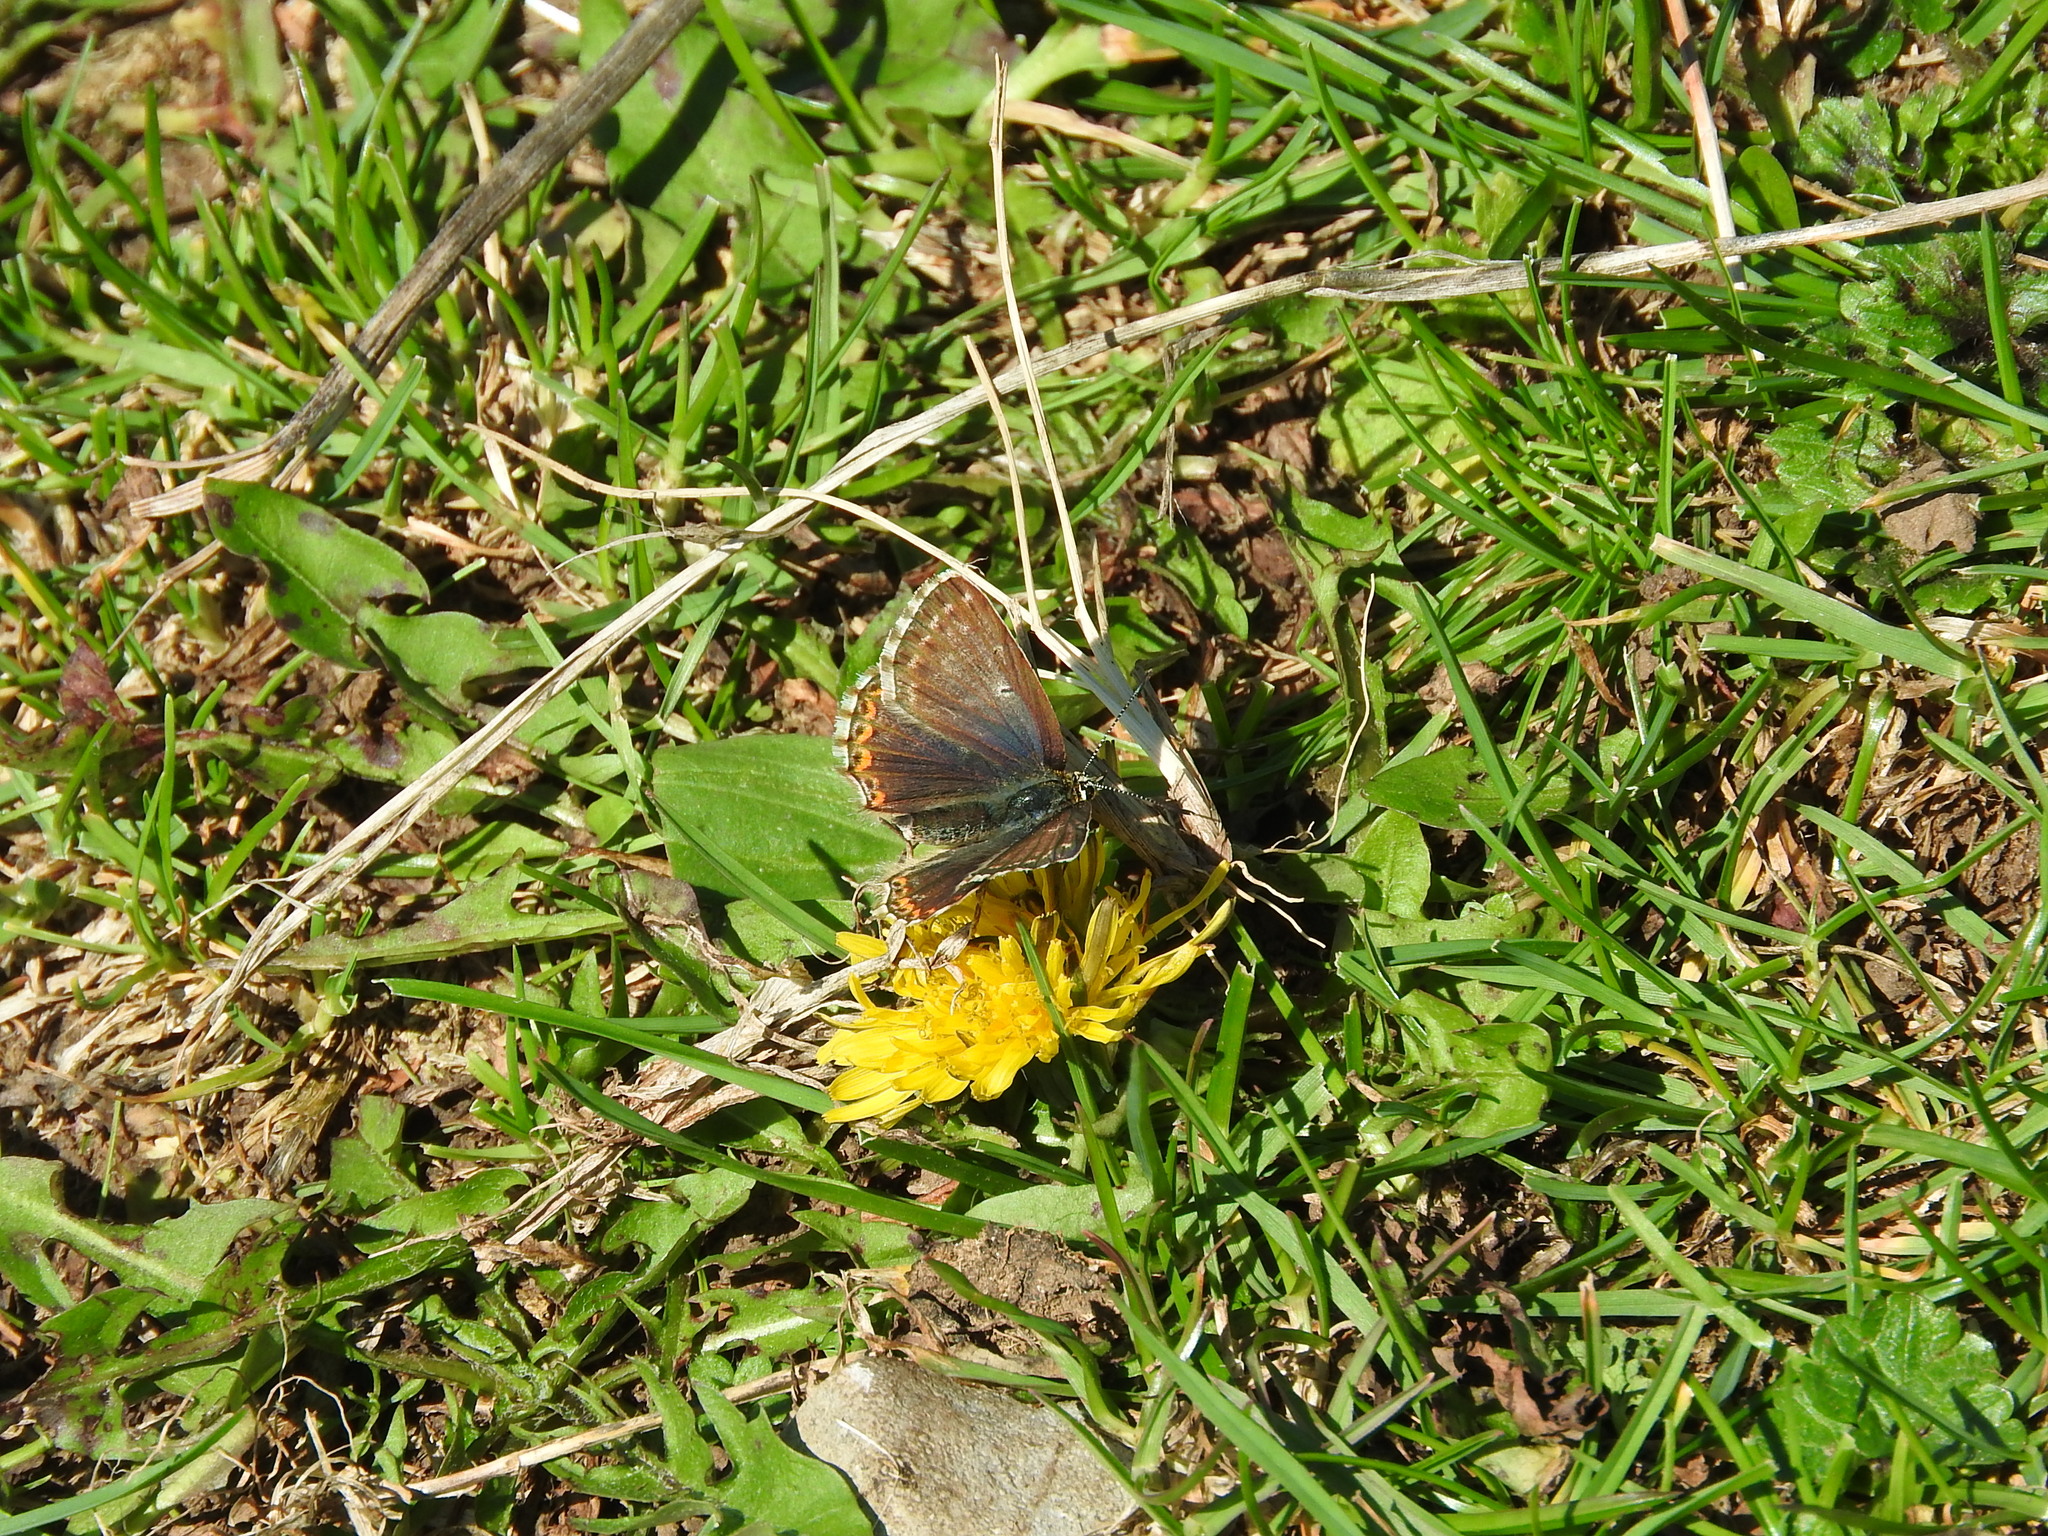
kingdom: Animalia
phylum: Arthropoda
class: Insecta
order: Lepidoptera
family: Lycaenidae
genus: Lysandra
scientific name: Lysandra coridon
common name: Chalkhill blue
